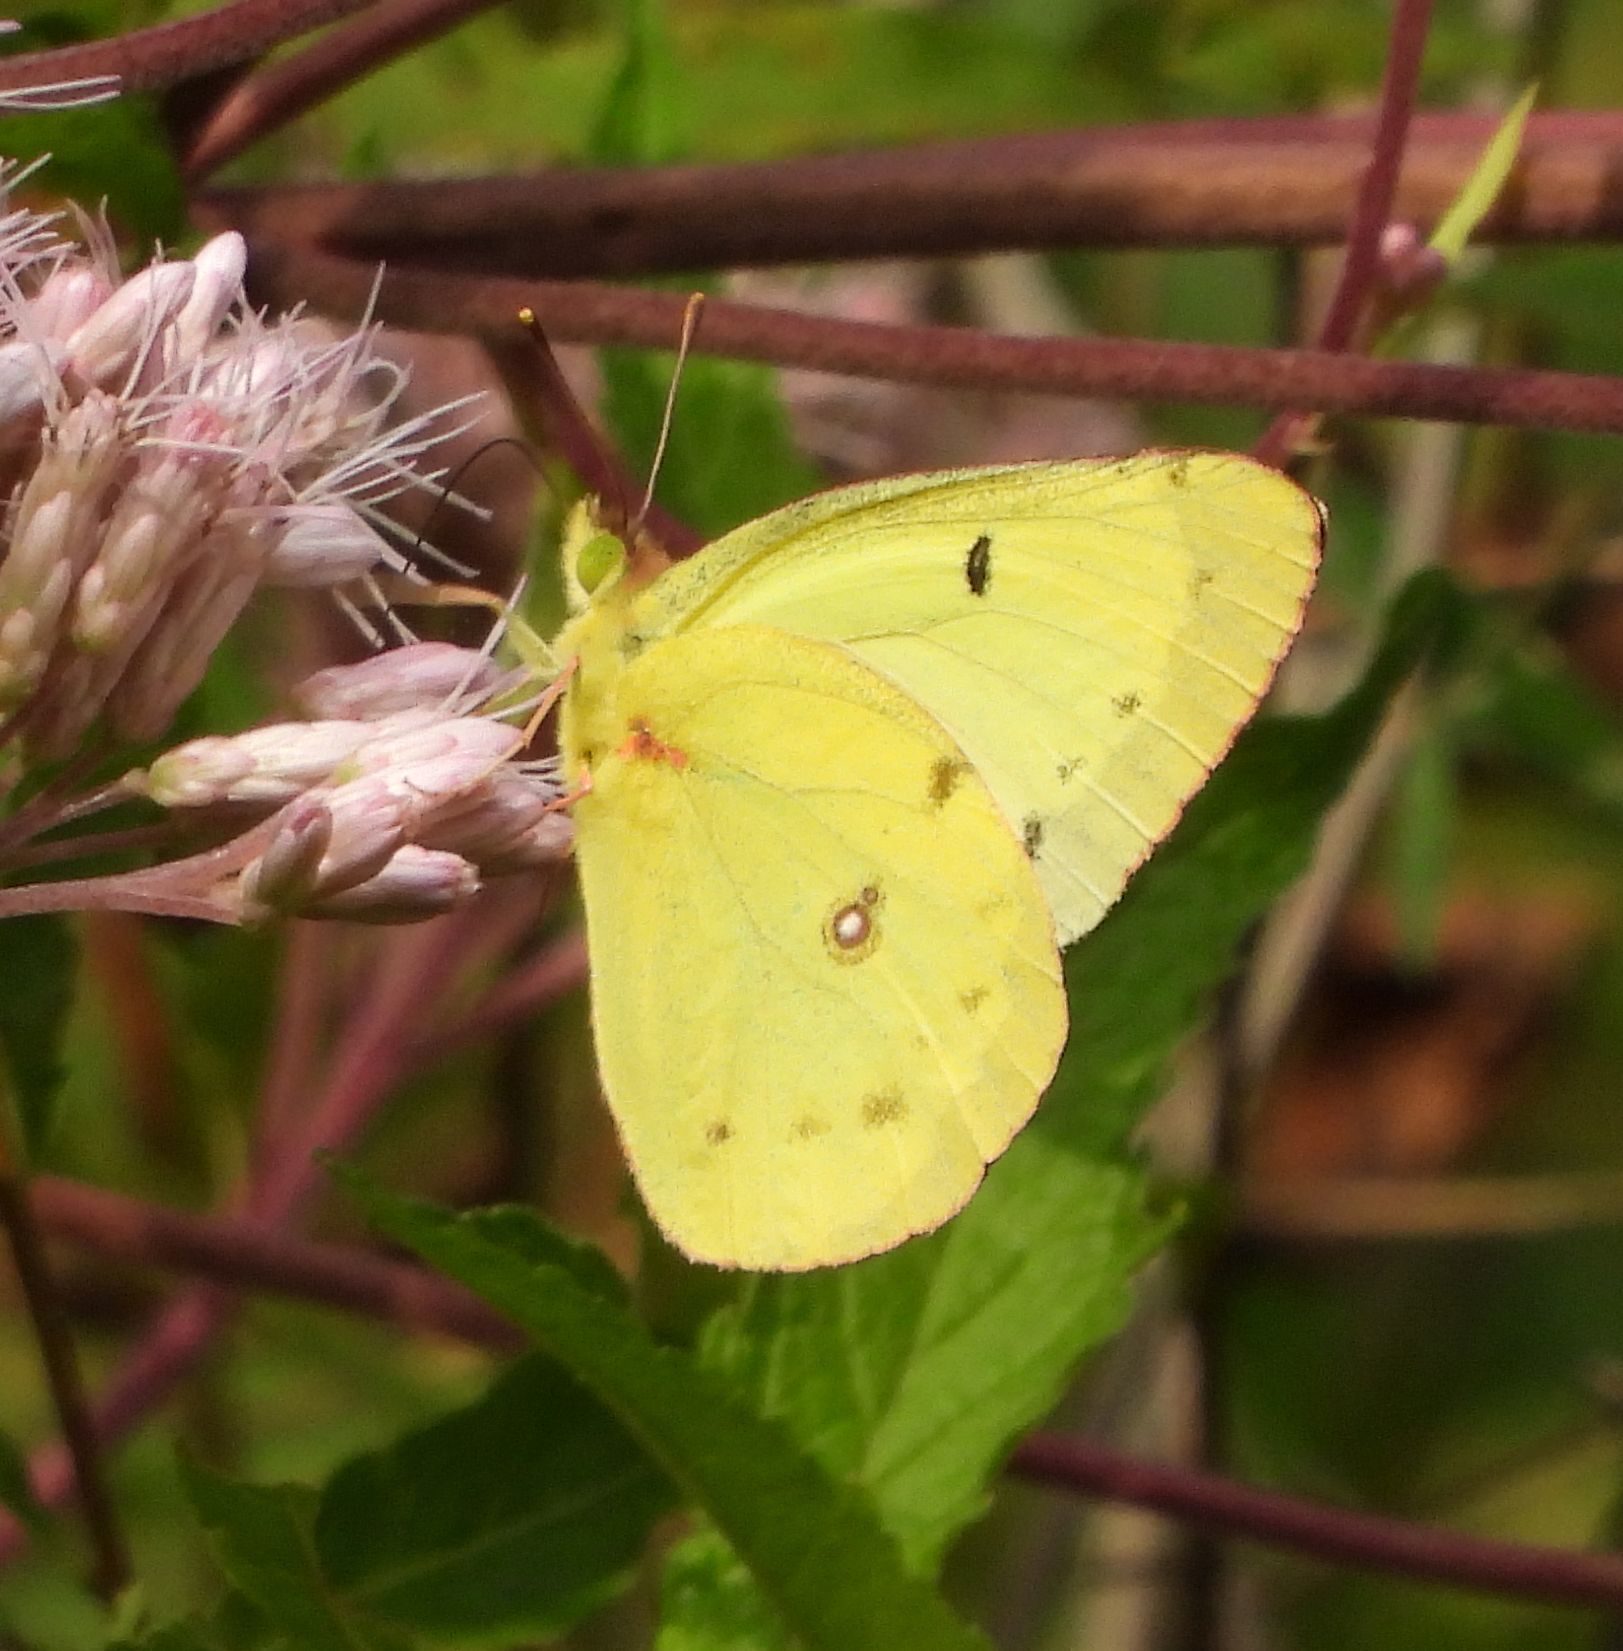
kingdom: Animalia
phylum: Arthropoda
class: Insecta
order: Lepidoptera
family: Pieridae
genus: Colias
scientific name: Colias philodice
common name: Clouded sulphur
